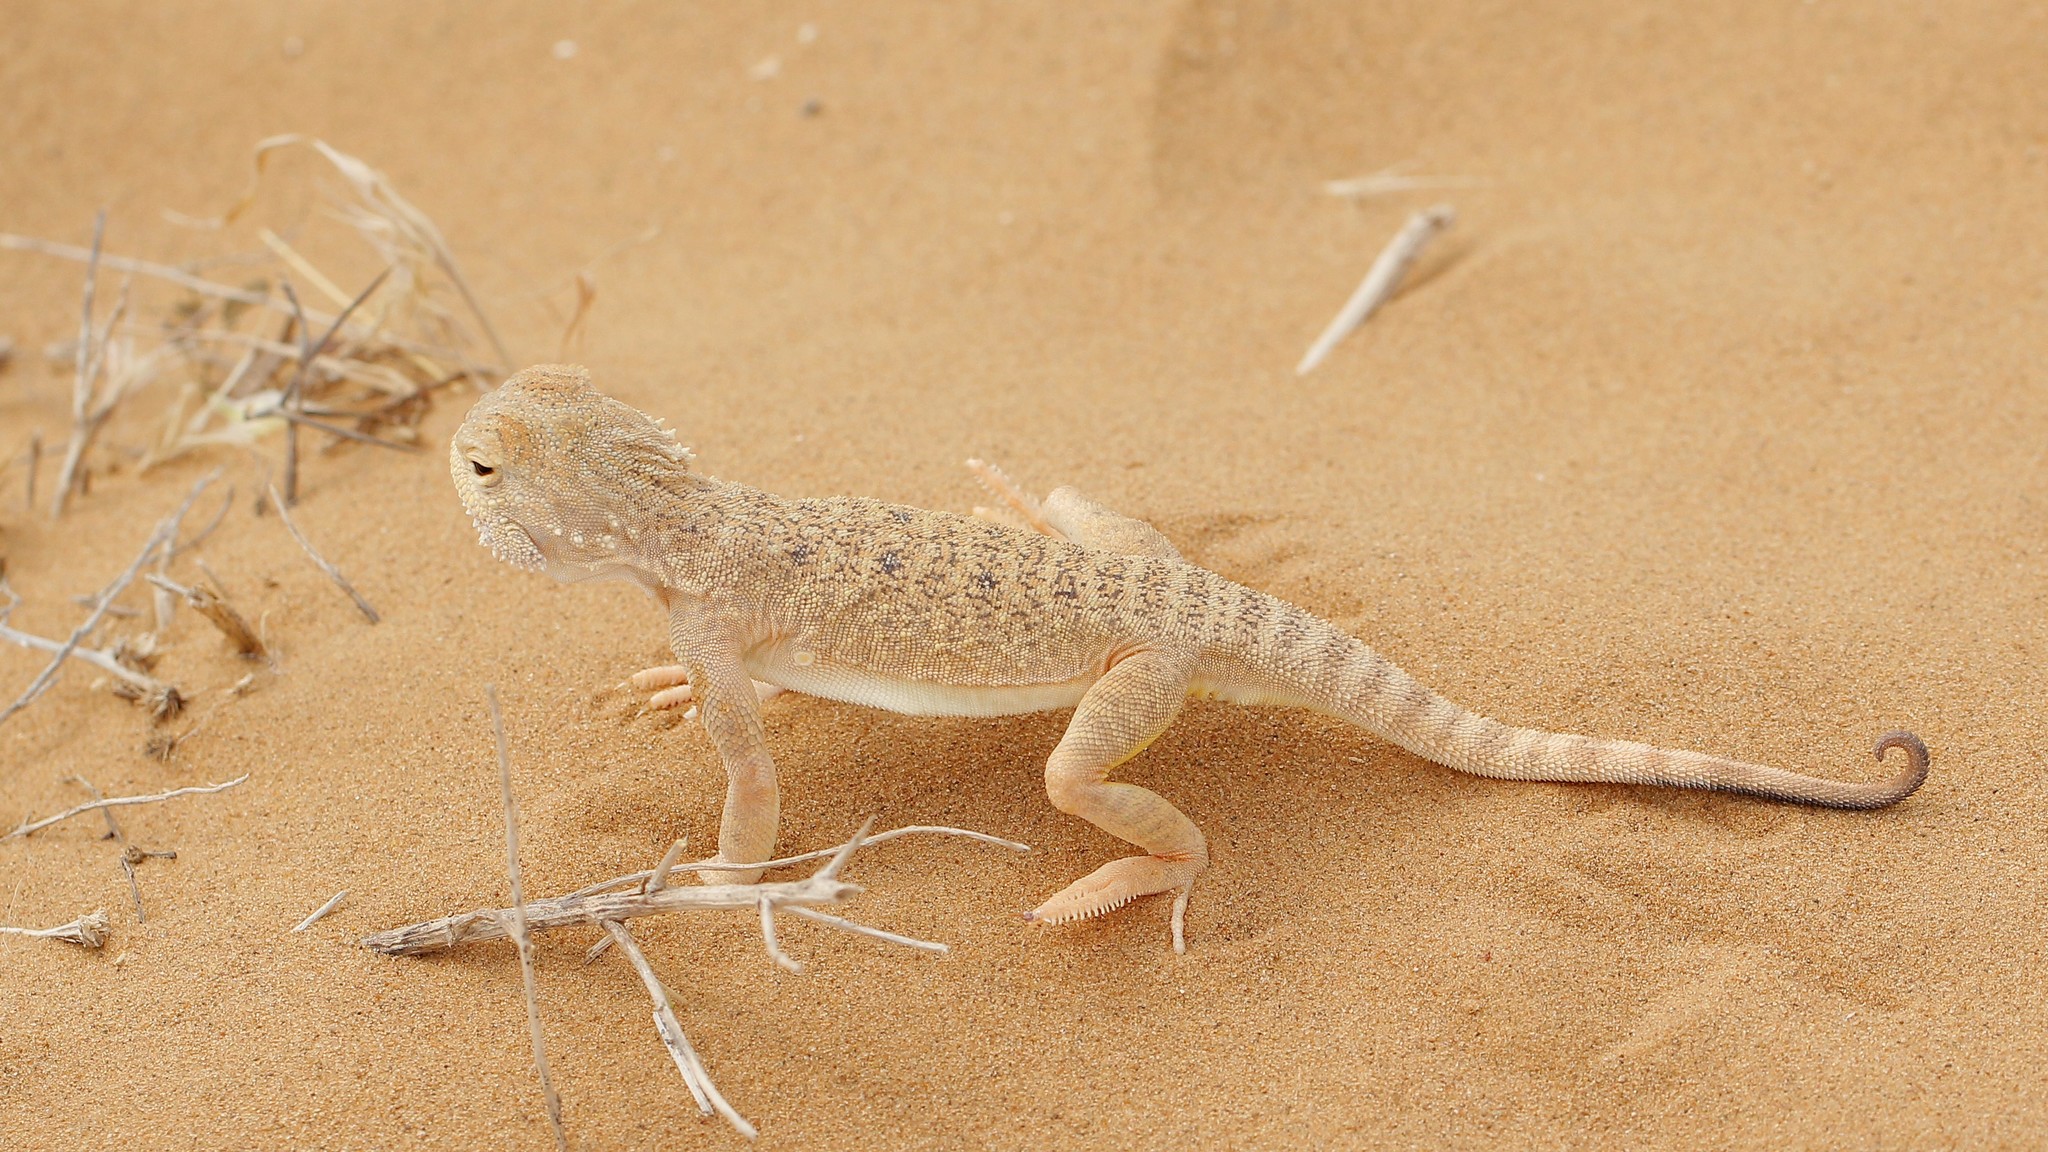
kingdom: Animalia
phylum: Chordata
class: Squamata
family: Agamidae
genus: Phrynocephalus
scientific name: Phrynocephalus mystaceus
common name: Secret toadhead agama
